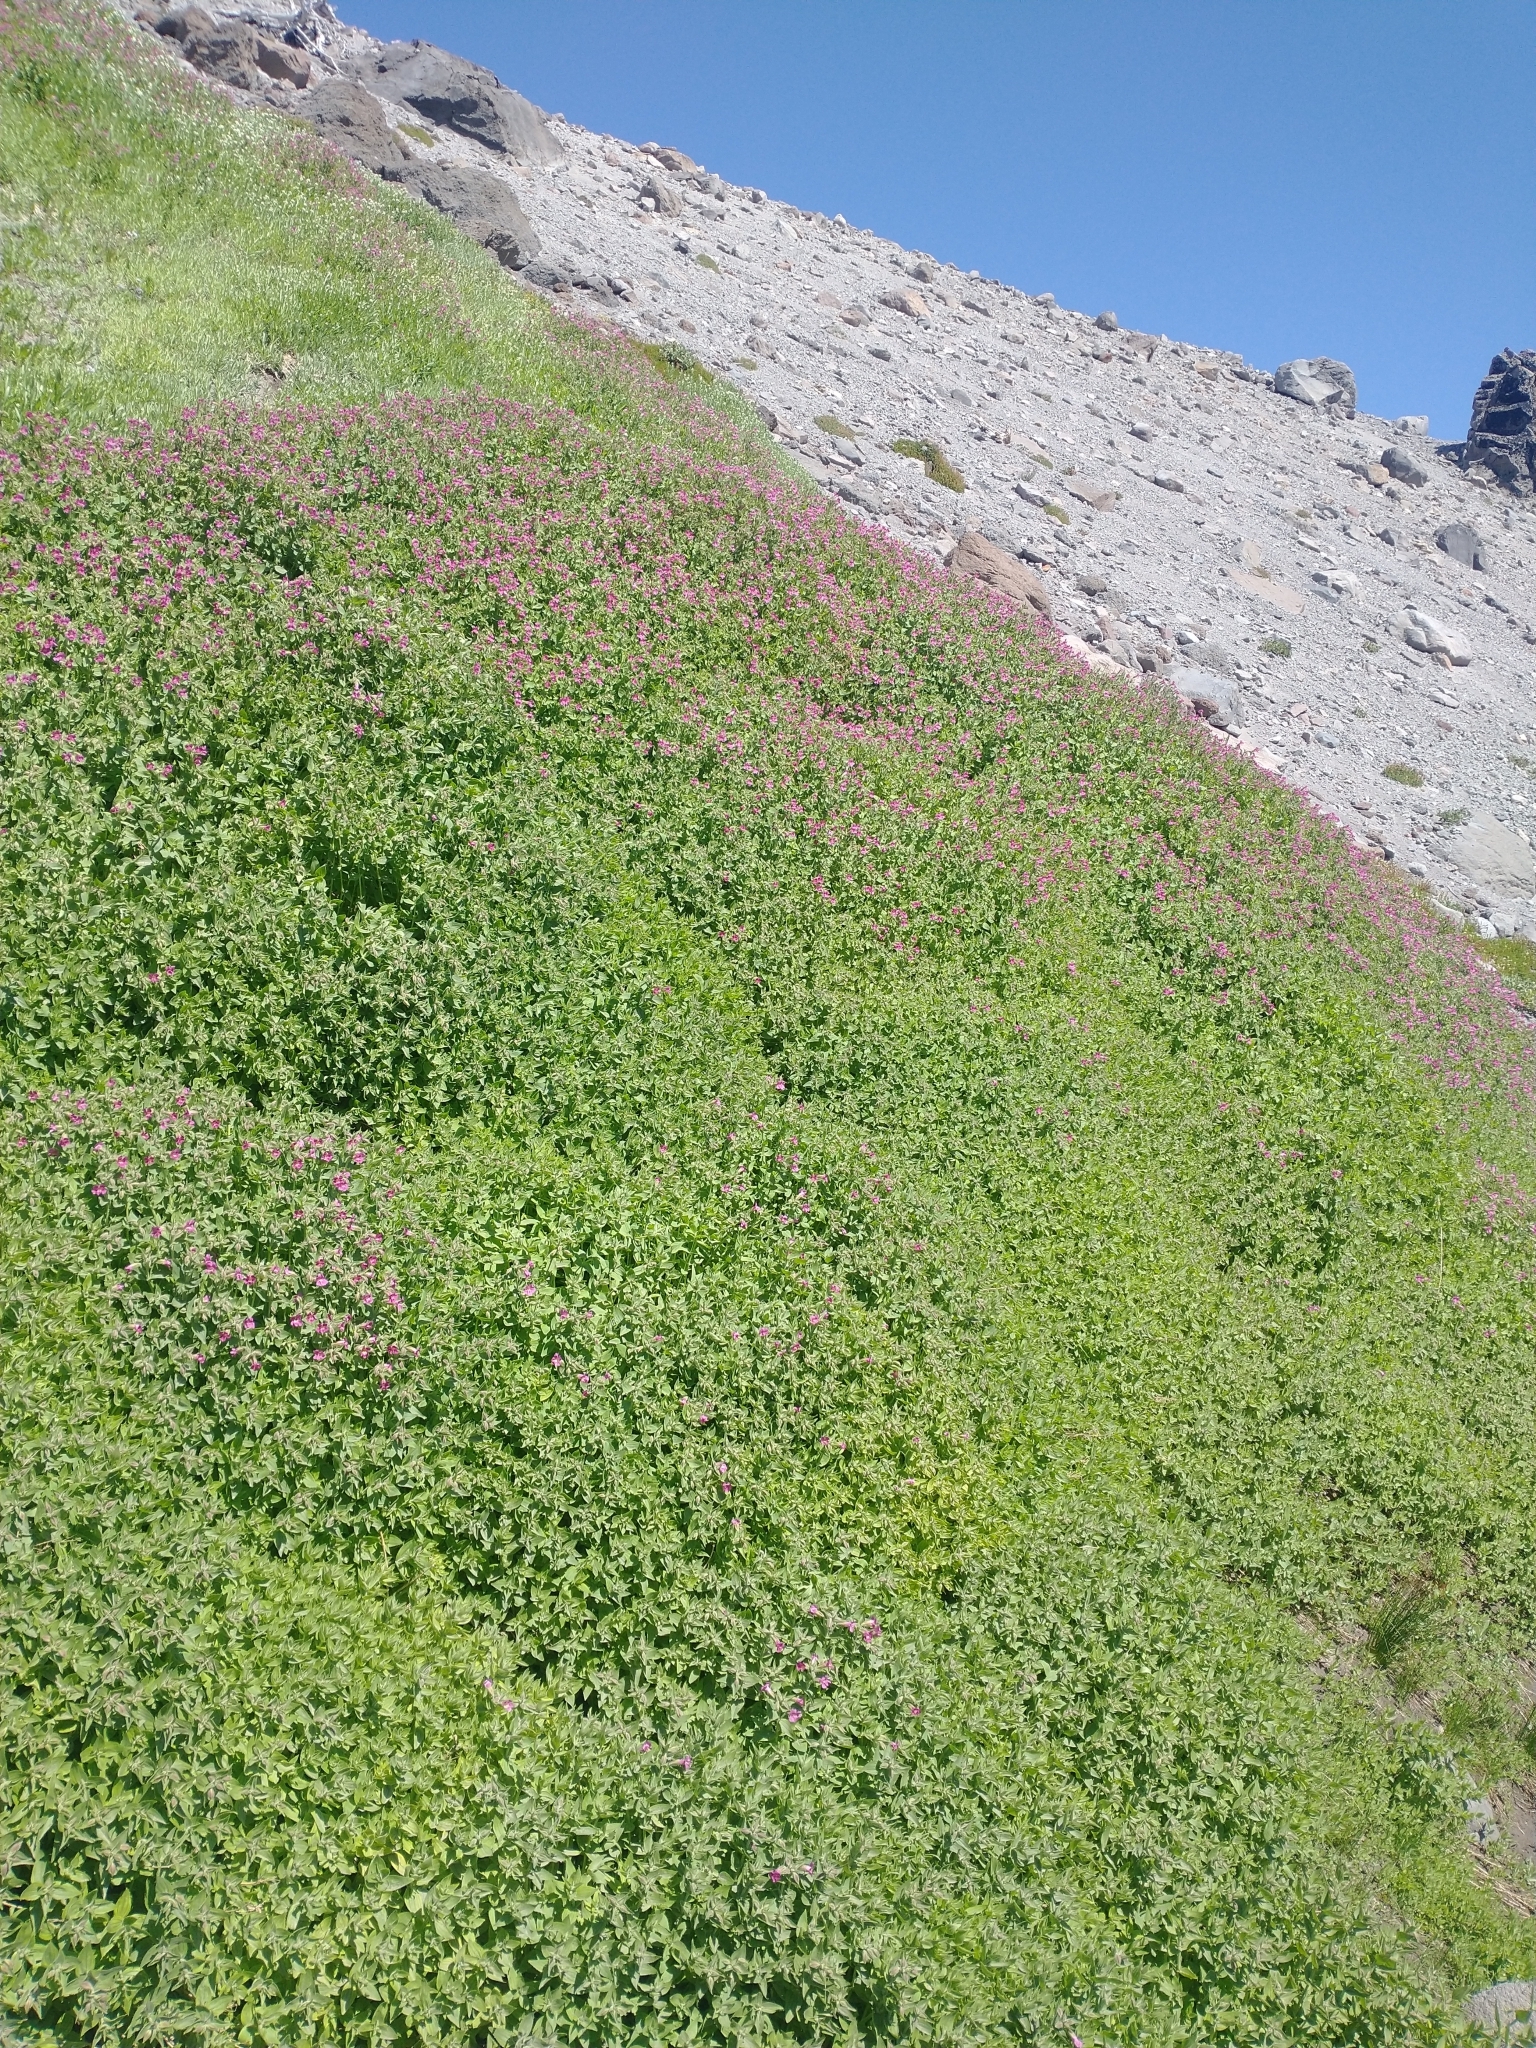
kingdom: Plantae
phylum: Tracheophyta
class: Magnoliopsida
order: Lamiales
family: Phrymaceae
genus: Erythranthe
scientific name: Erythranthe lewisii
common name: Lewis's monkey-flower
